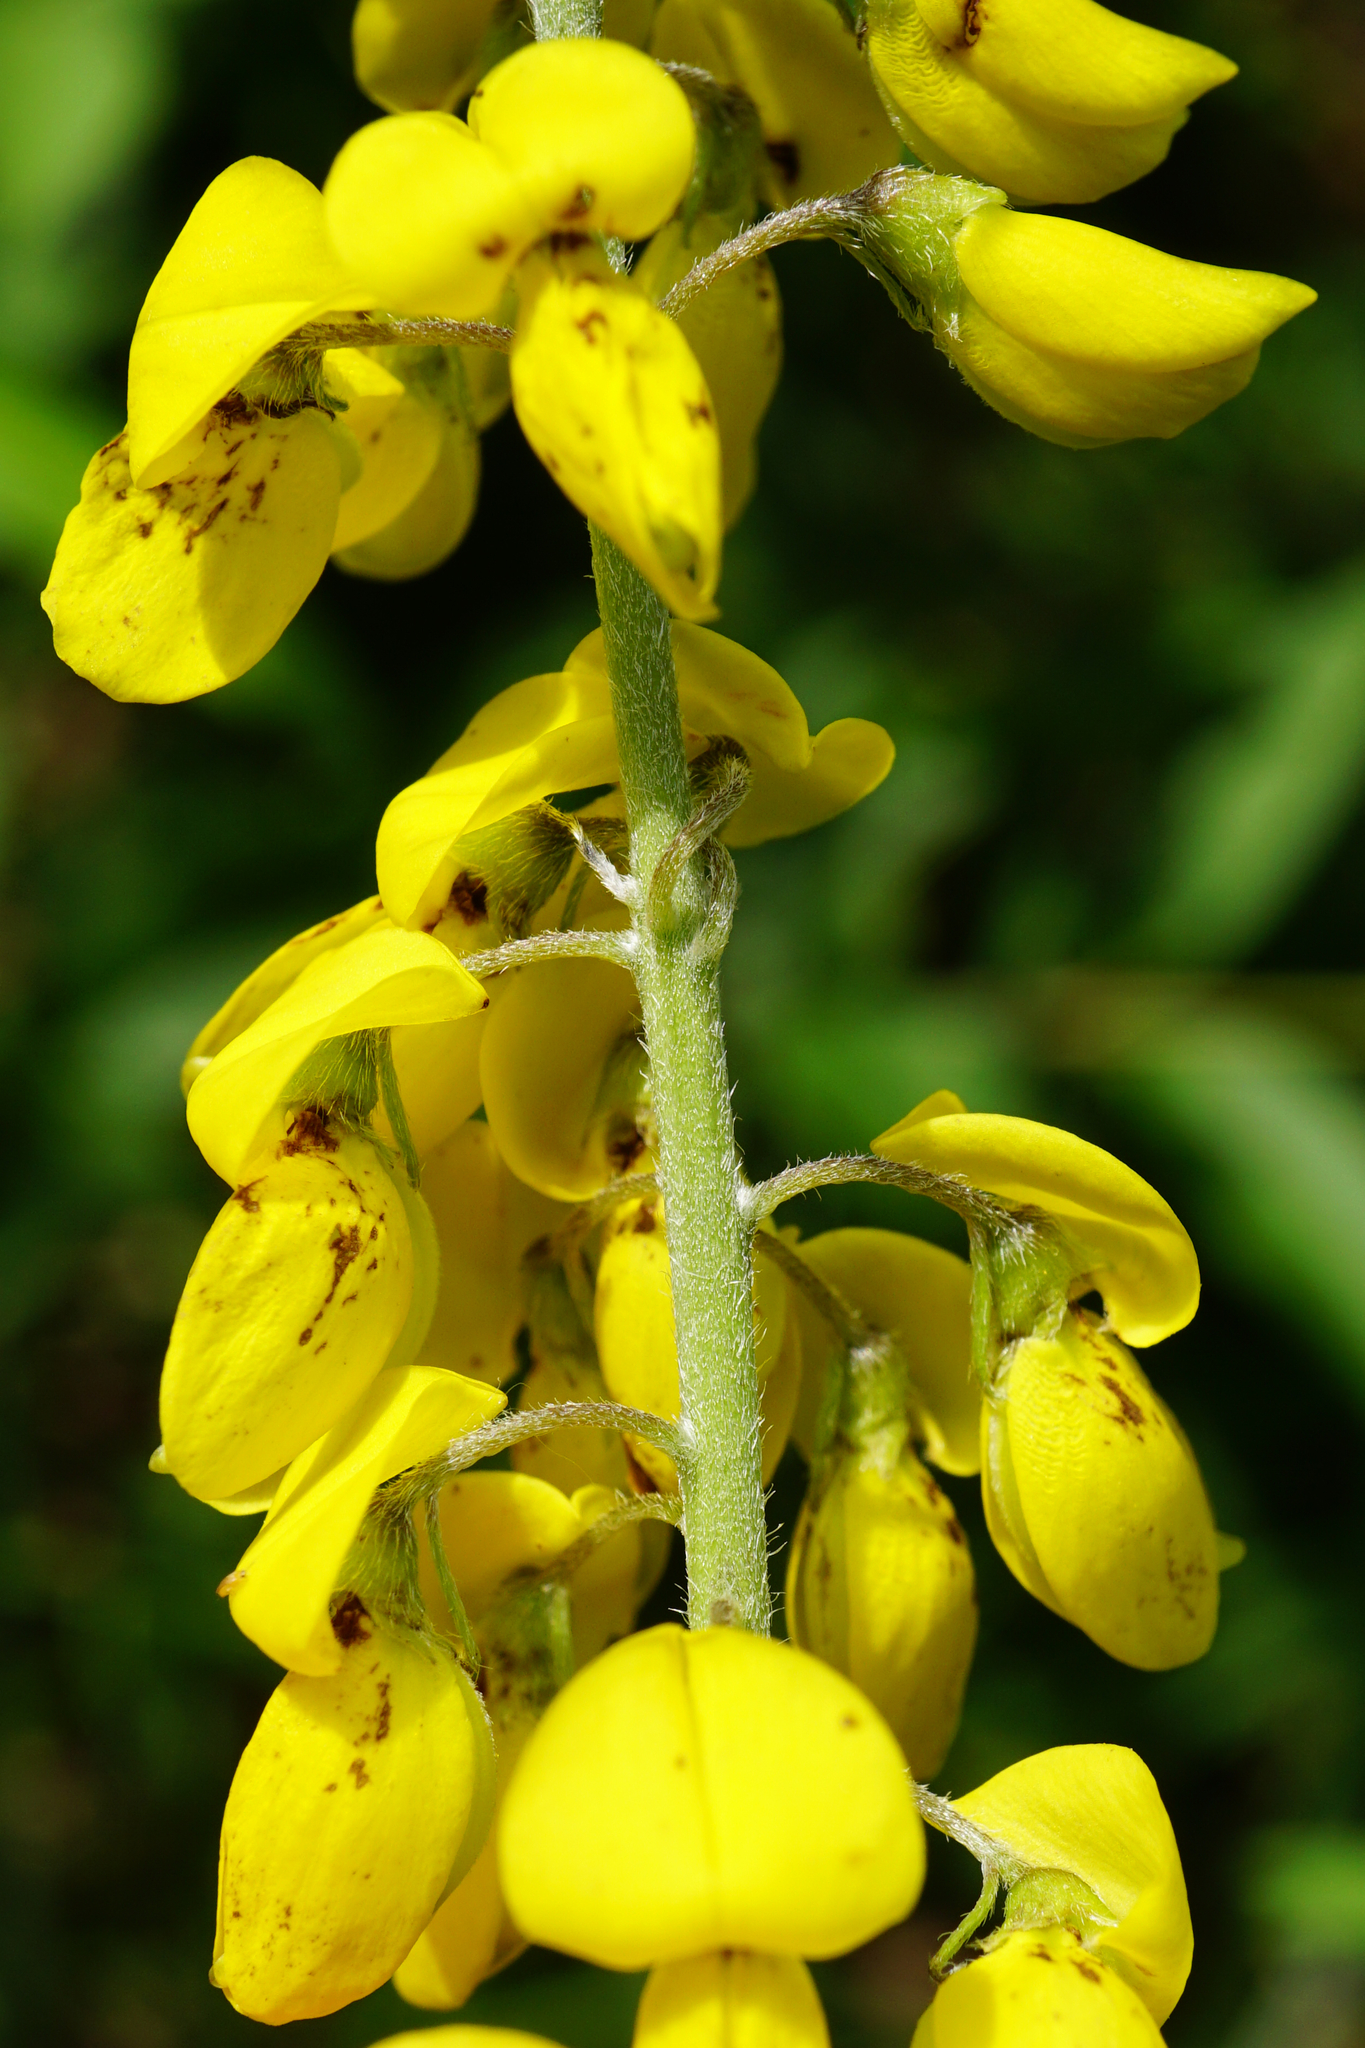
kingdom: Plantae
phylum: Tracheophyta
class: Magnoliopsida
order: Fabales
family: Fabaceae
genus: Cytisus
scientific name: Cytisus nigricans
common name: Black broom
